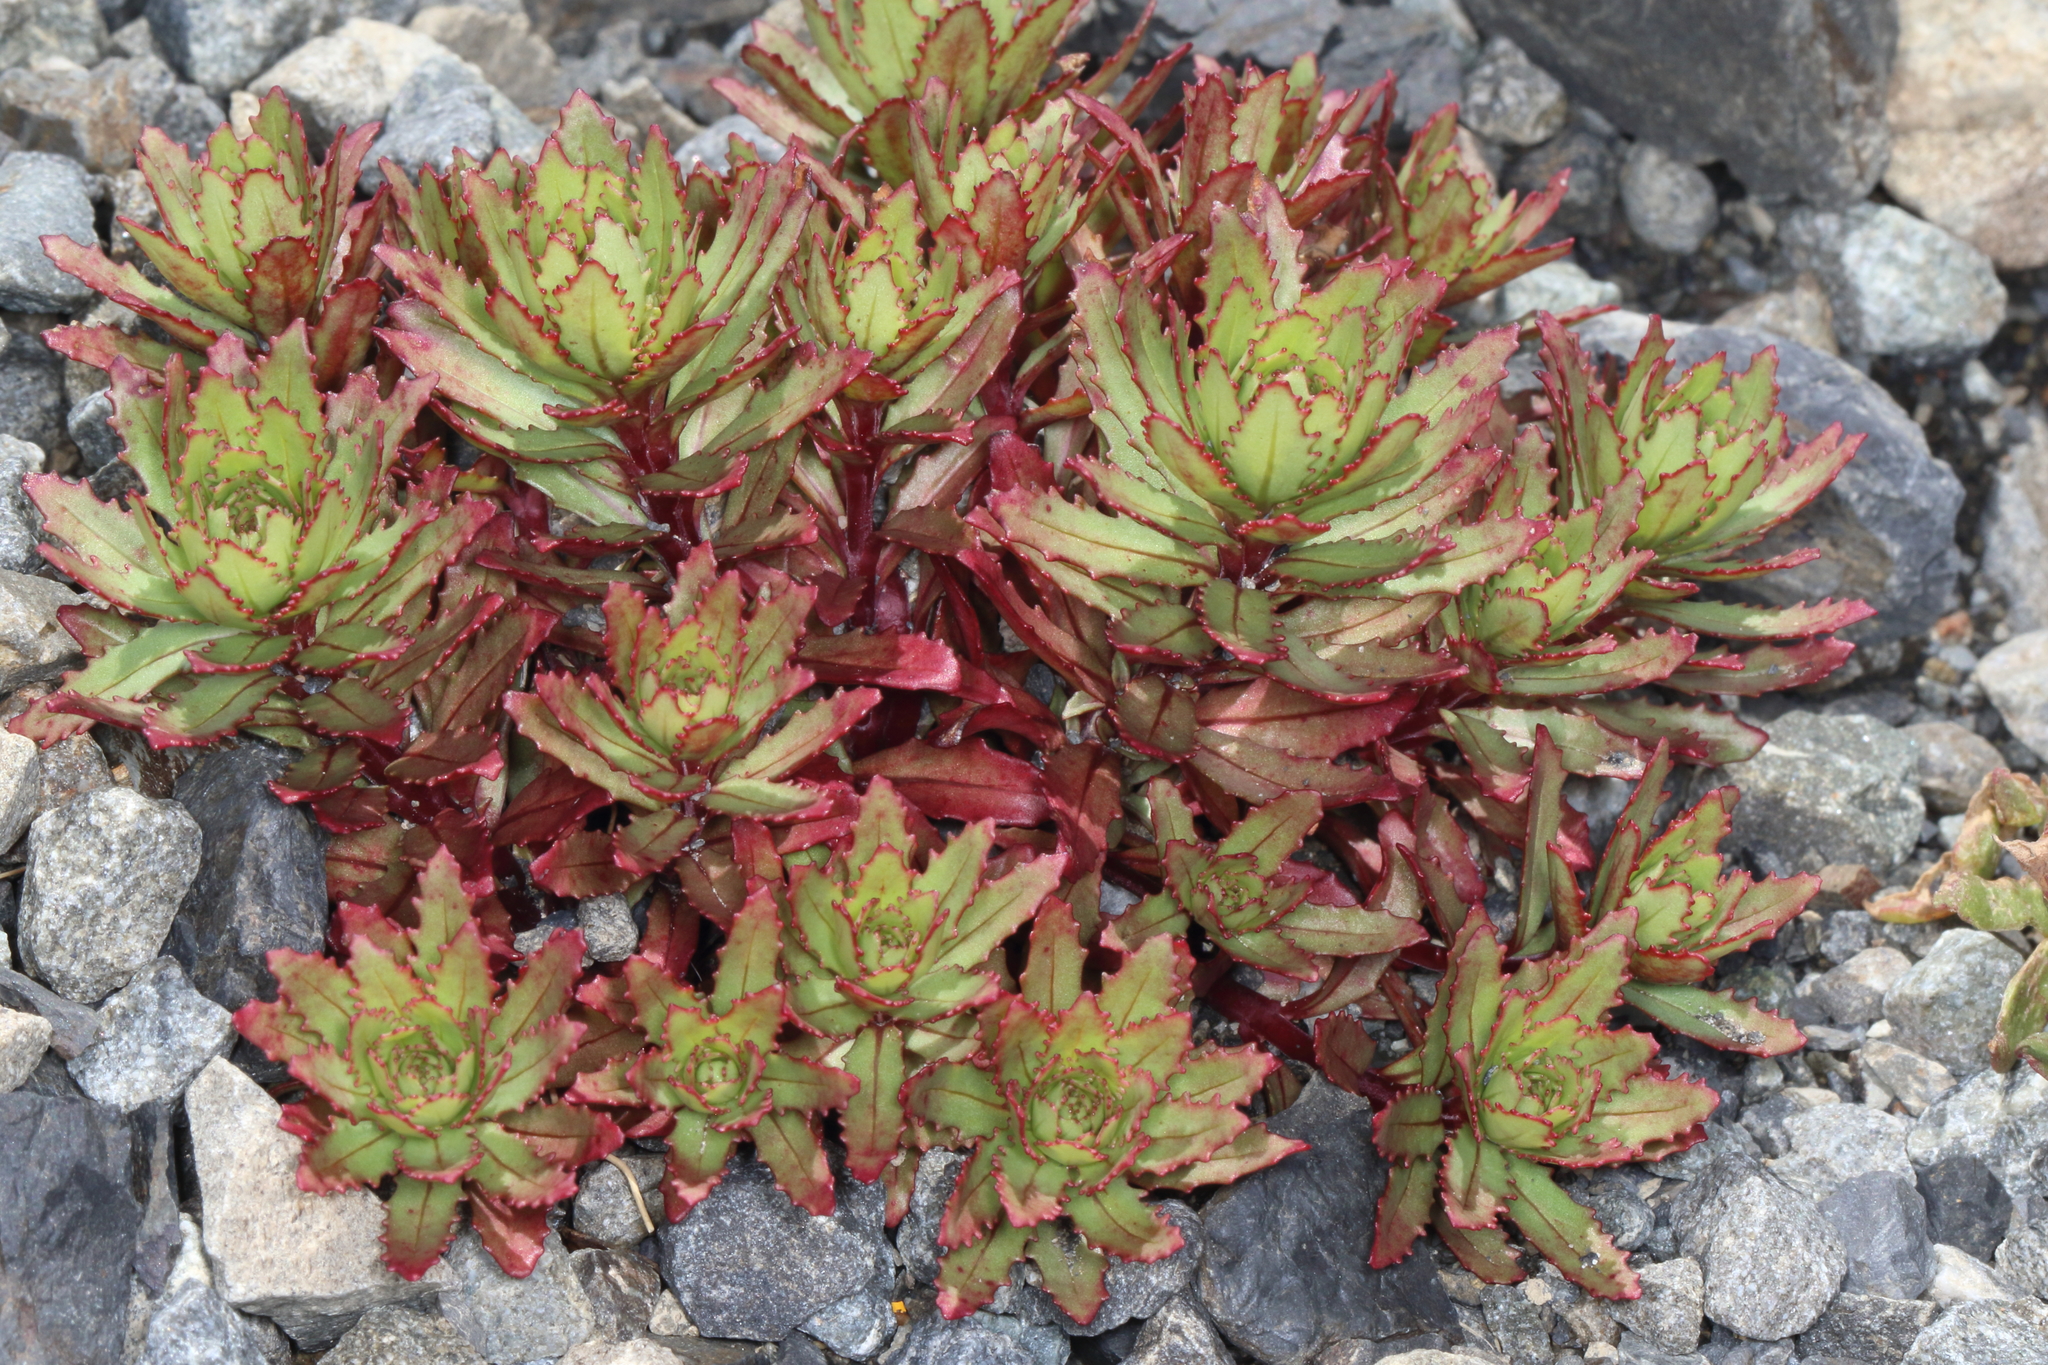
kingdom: Plantae
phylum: Tracheophyta
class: Magnoliopsida
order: Myrtales
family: Onagraceae
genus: Epilobium
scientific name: Epilobium pycnostachyum
